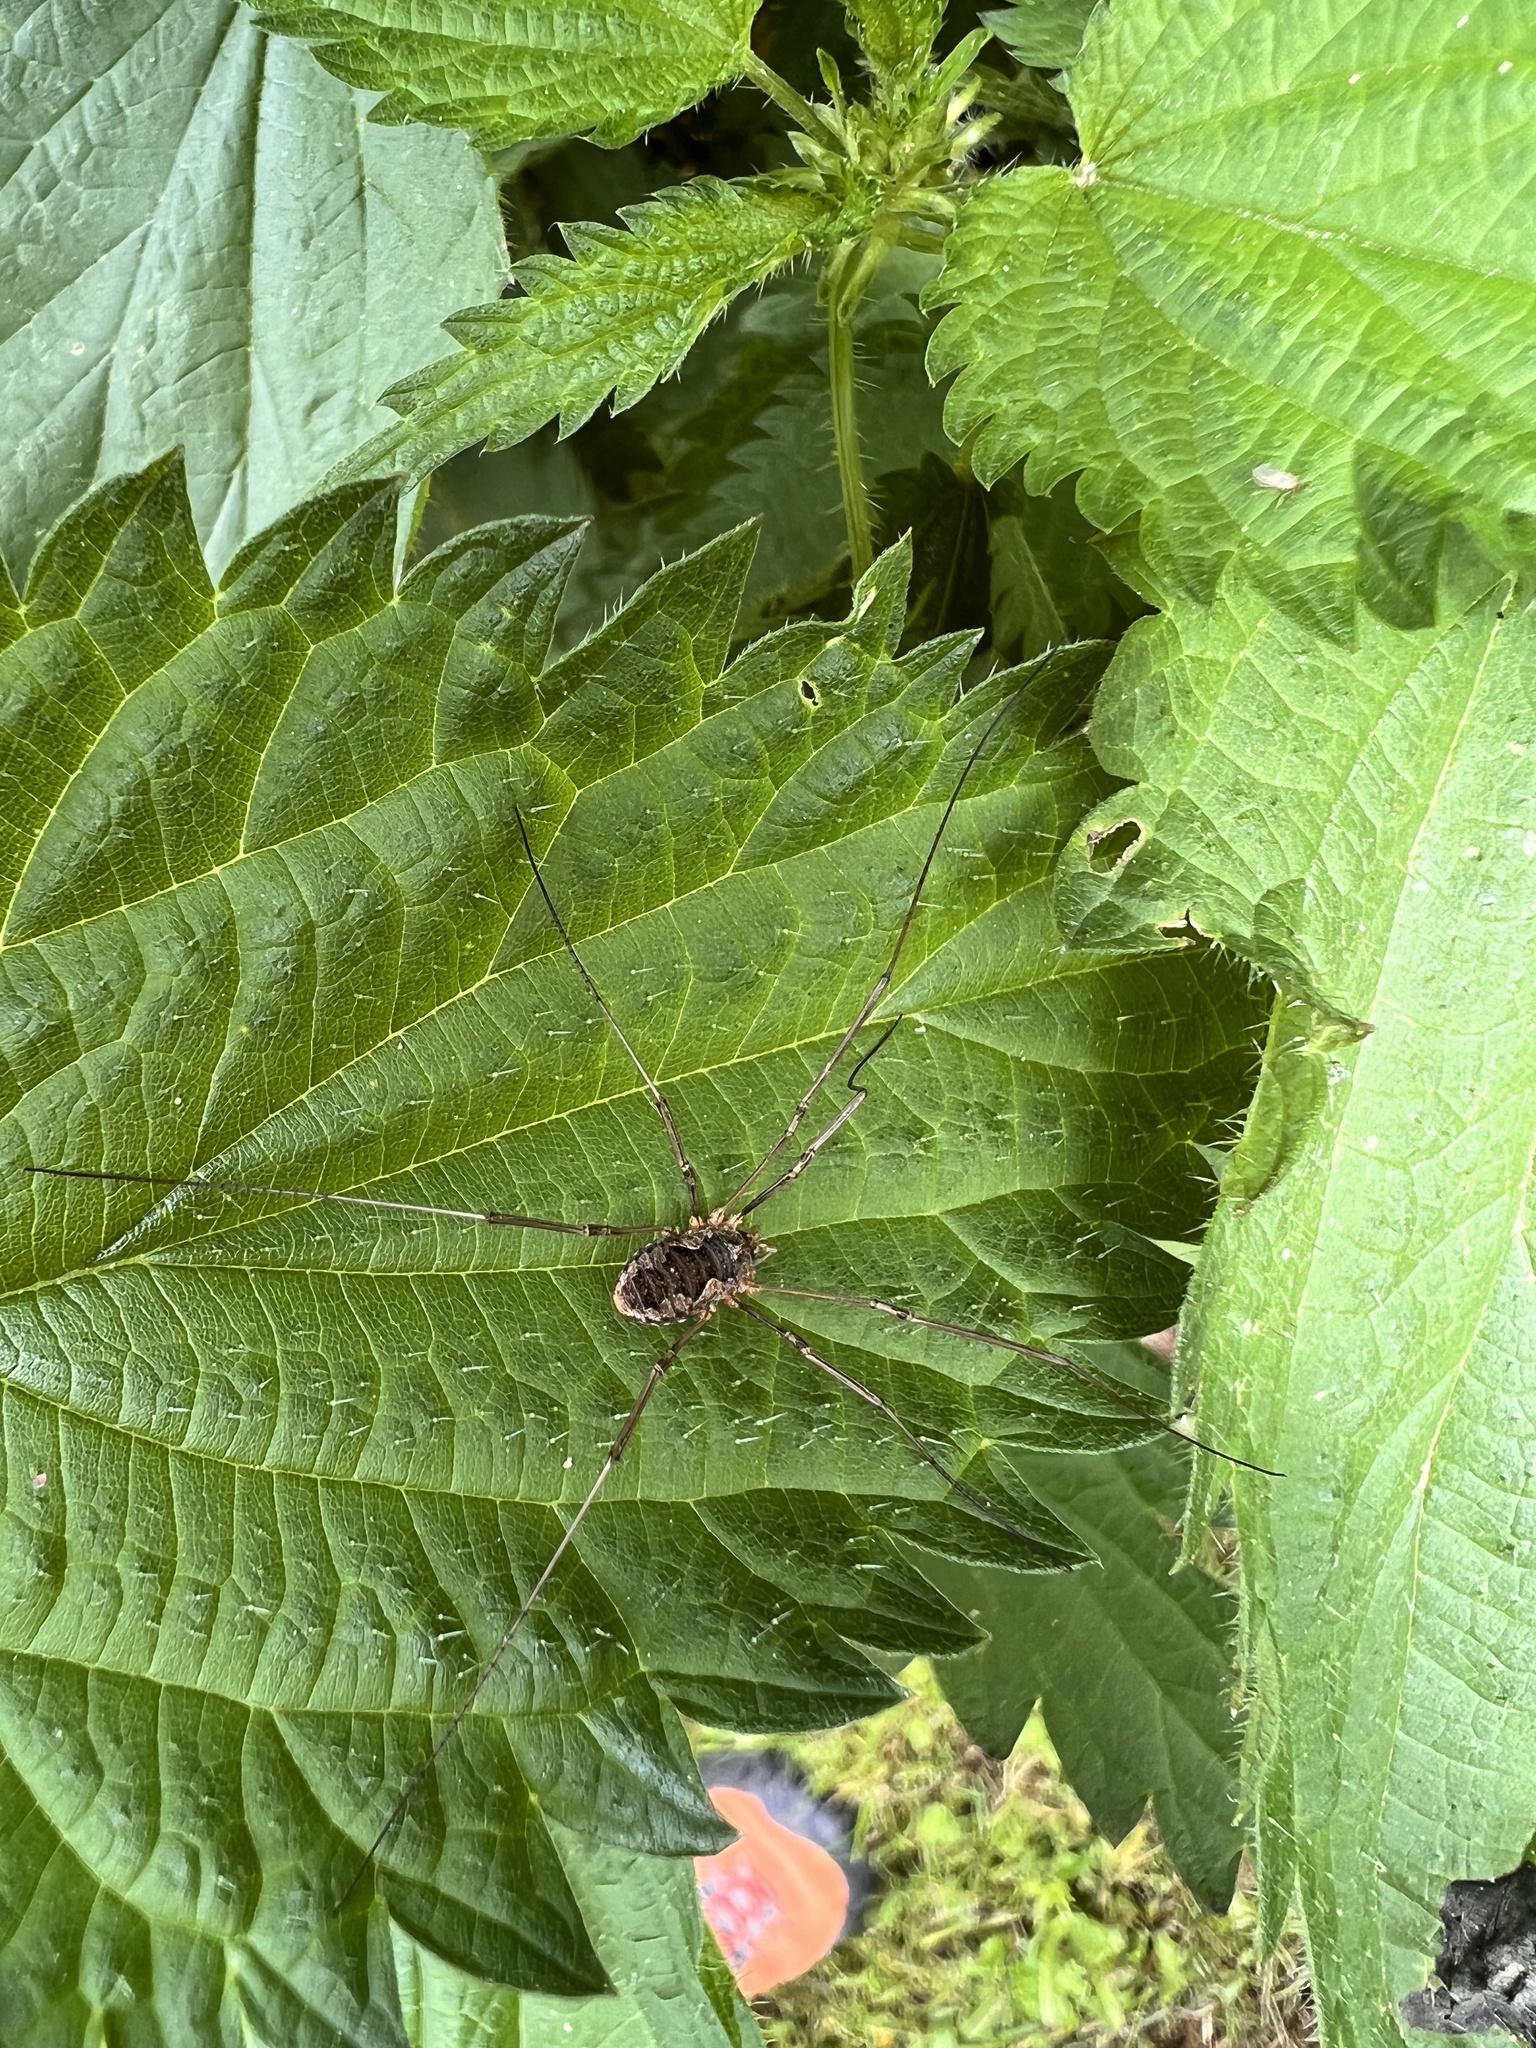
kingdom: Animalia
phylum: Arthropoda
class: Arachnida
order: Opiliones
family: Phalangiidae
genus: Phalangium
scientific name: Phalangium opilio
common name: Daddy longleg
